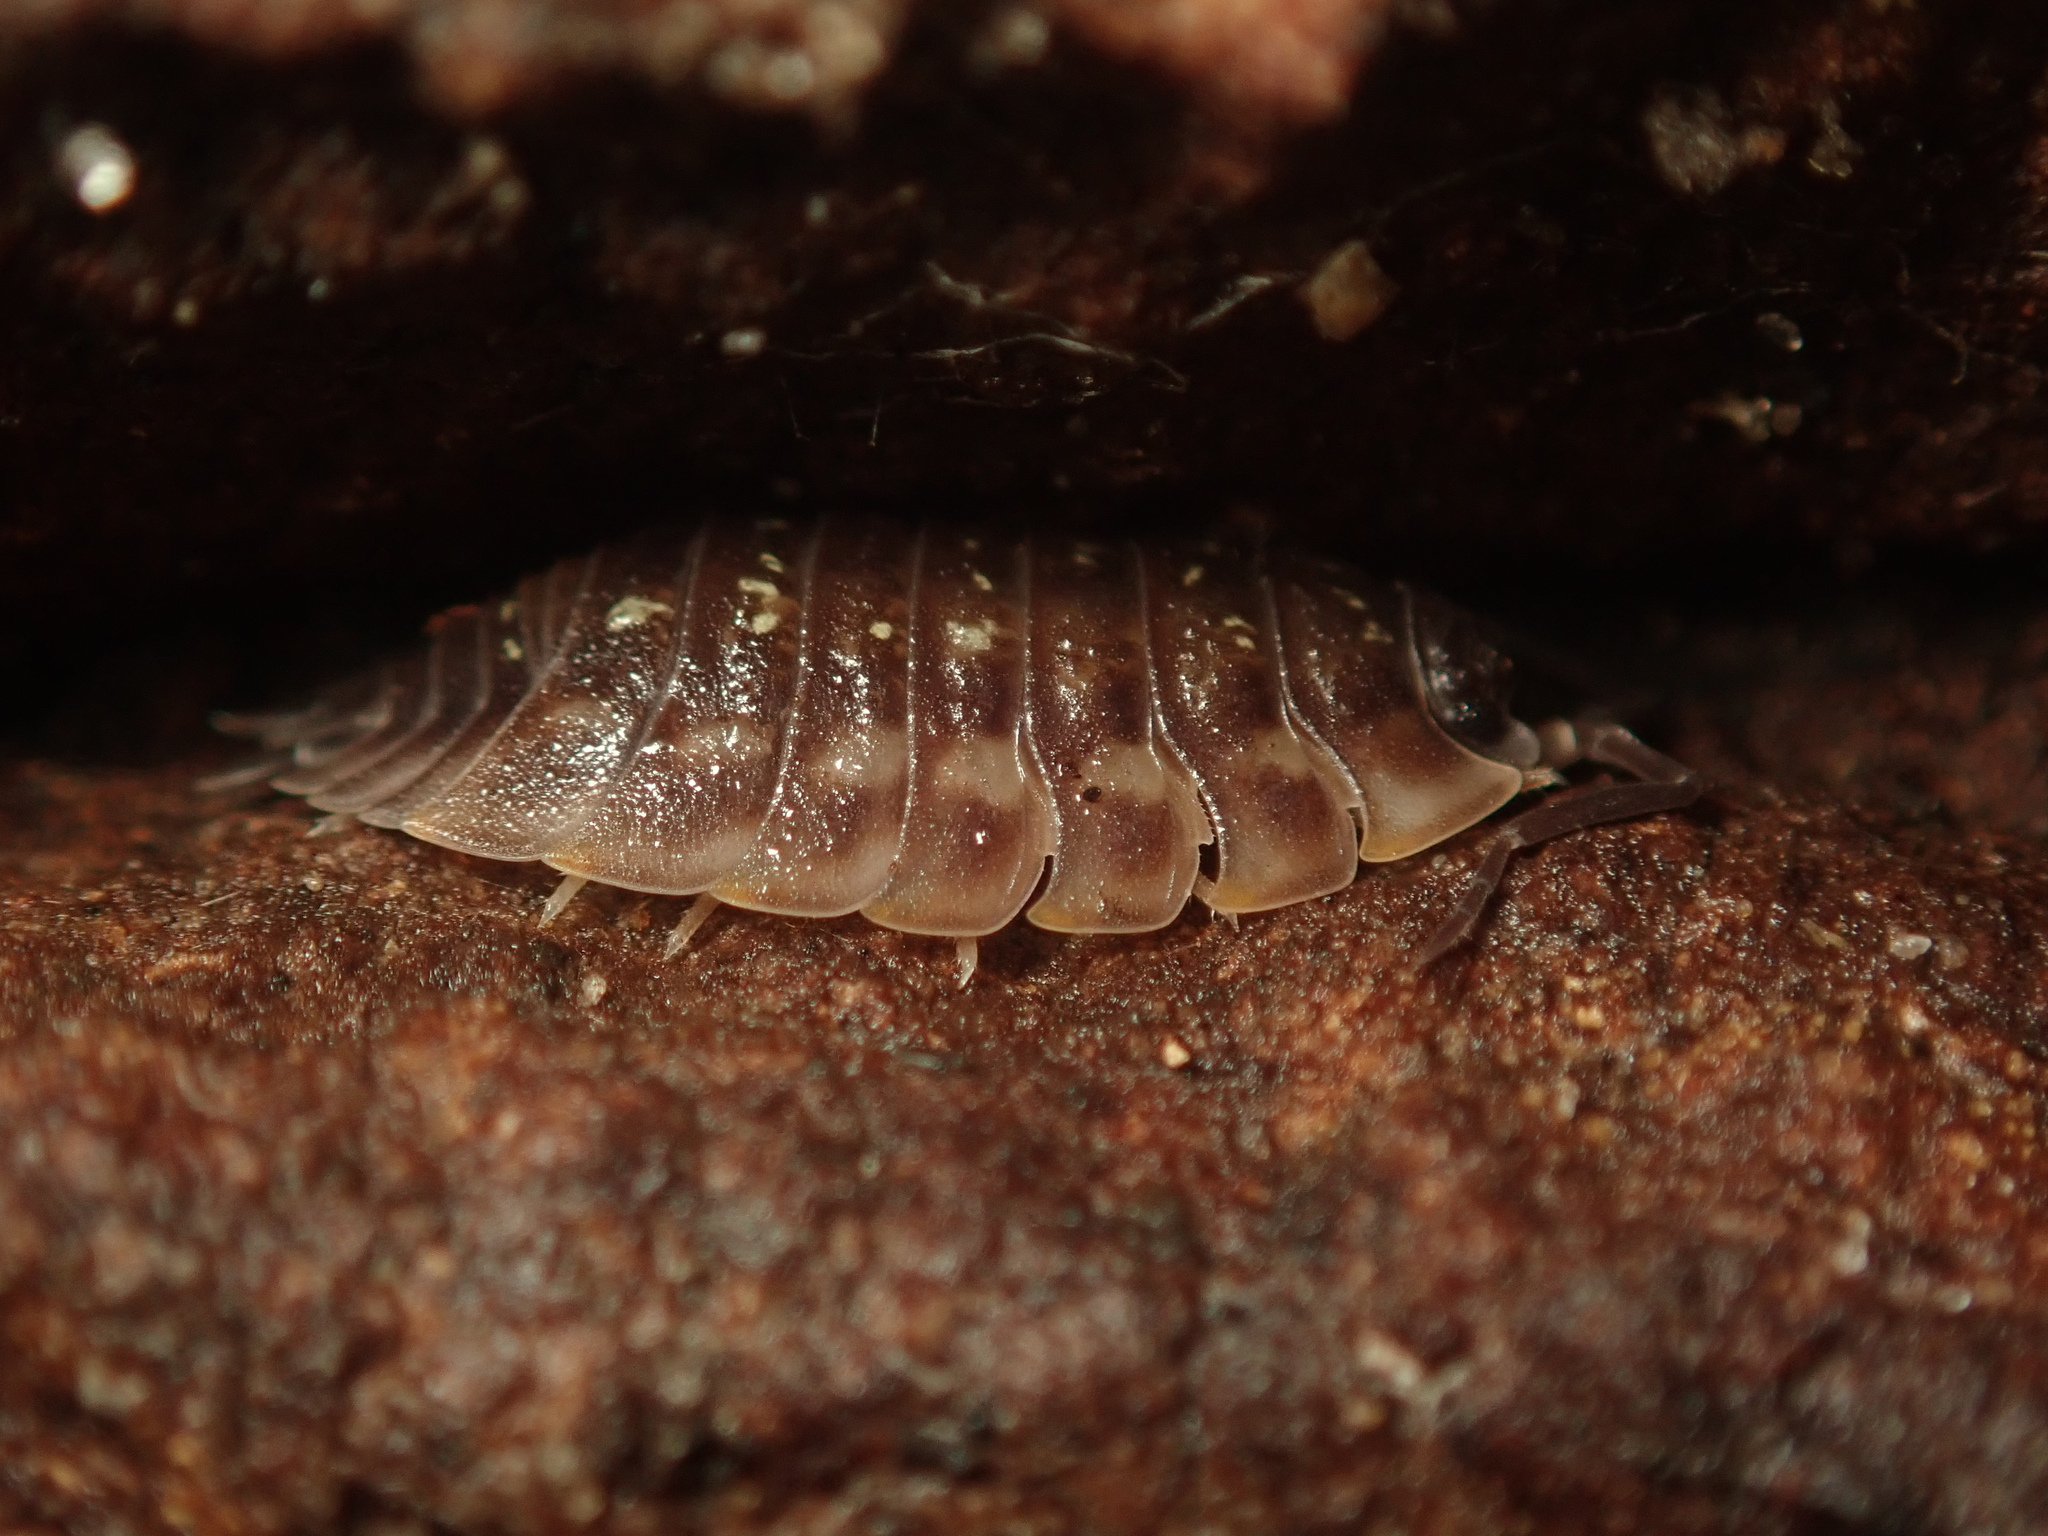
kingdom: Animalia
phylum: Arthropoda
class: Malacostraca
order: Isopoda
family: Oniscidae
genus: Oniscus
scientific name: Oniscus asellus
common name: Common shiny woodlouse
